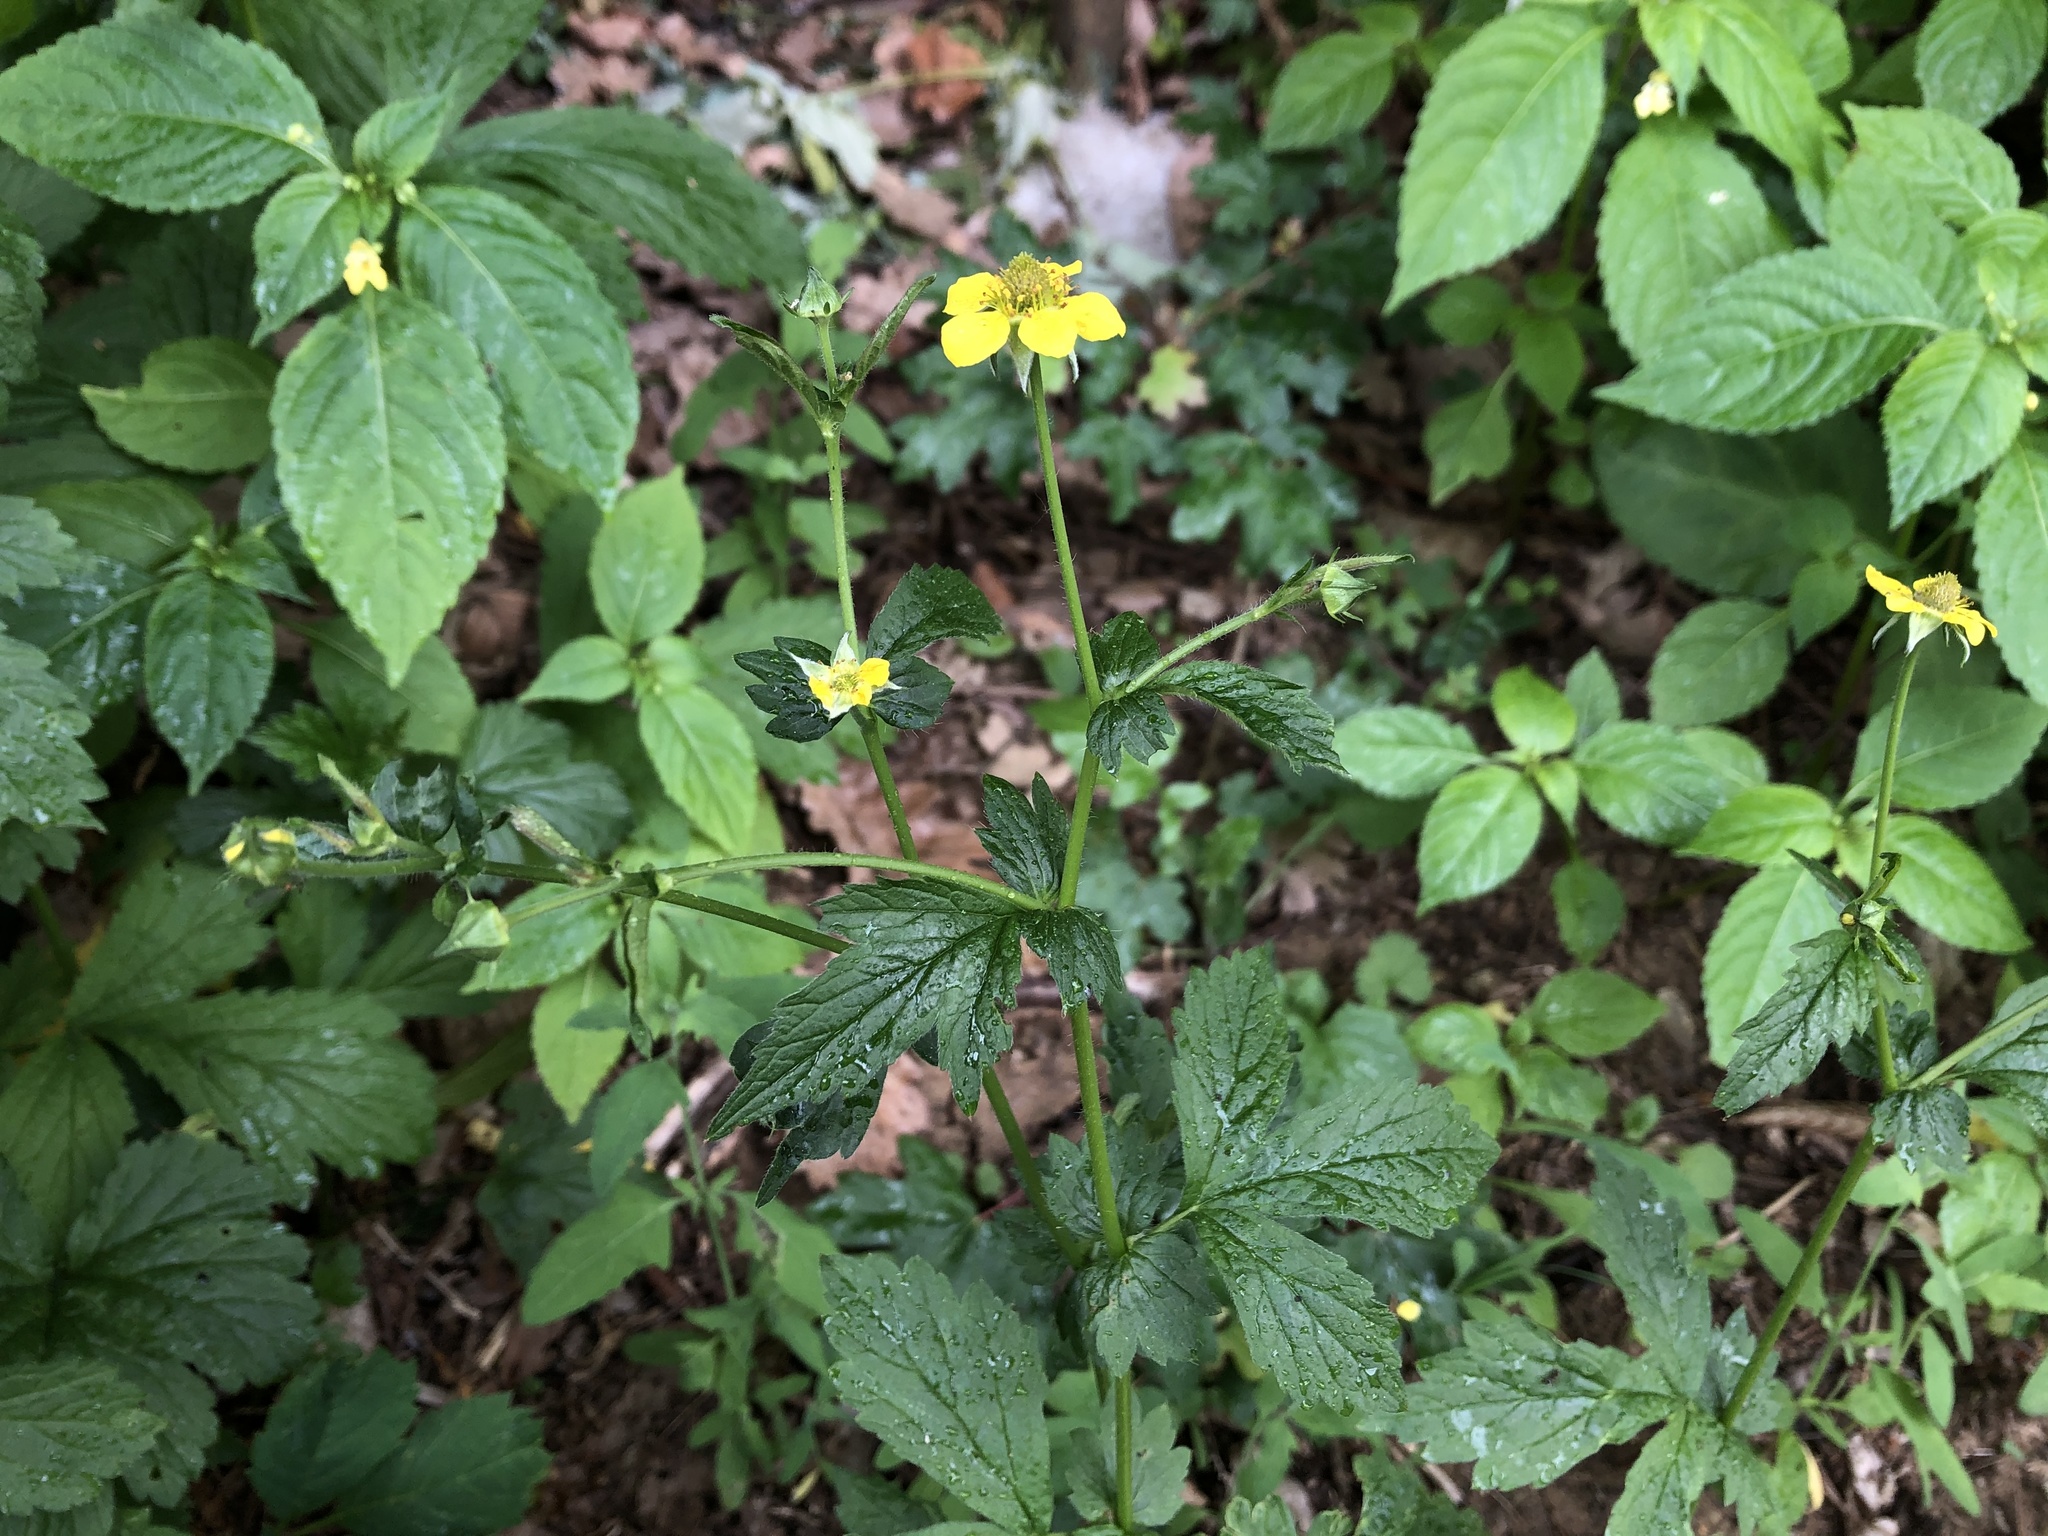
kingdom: Plantae
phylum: Tracheophyta
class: Magnoliopsida
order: Rosales
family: Rosaceae
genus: Geum
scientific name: Geum urbanum
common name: Wood avens
